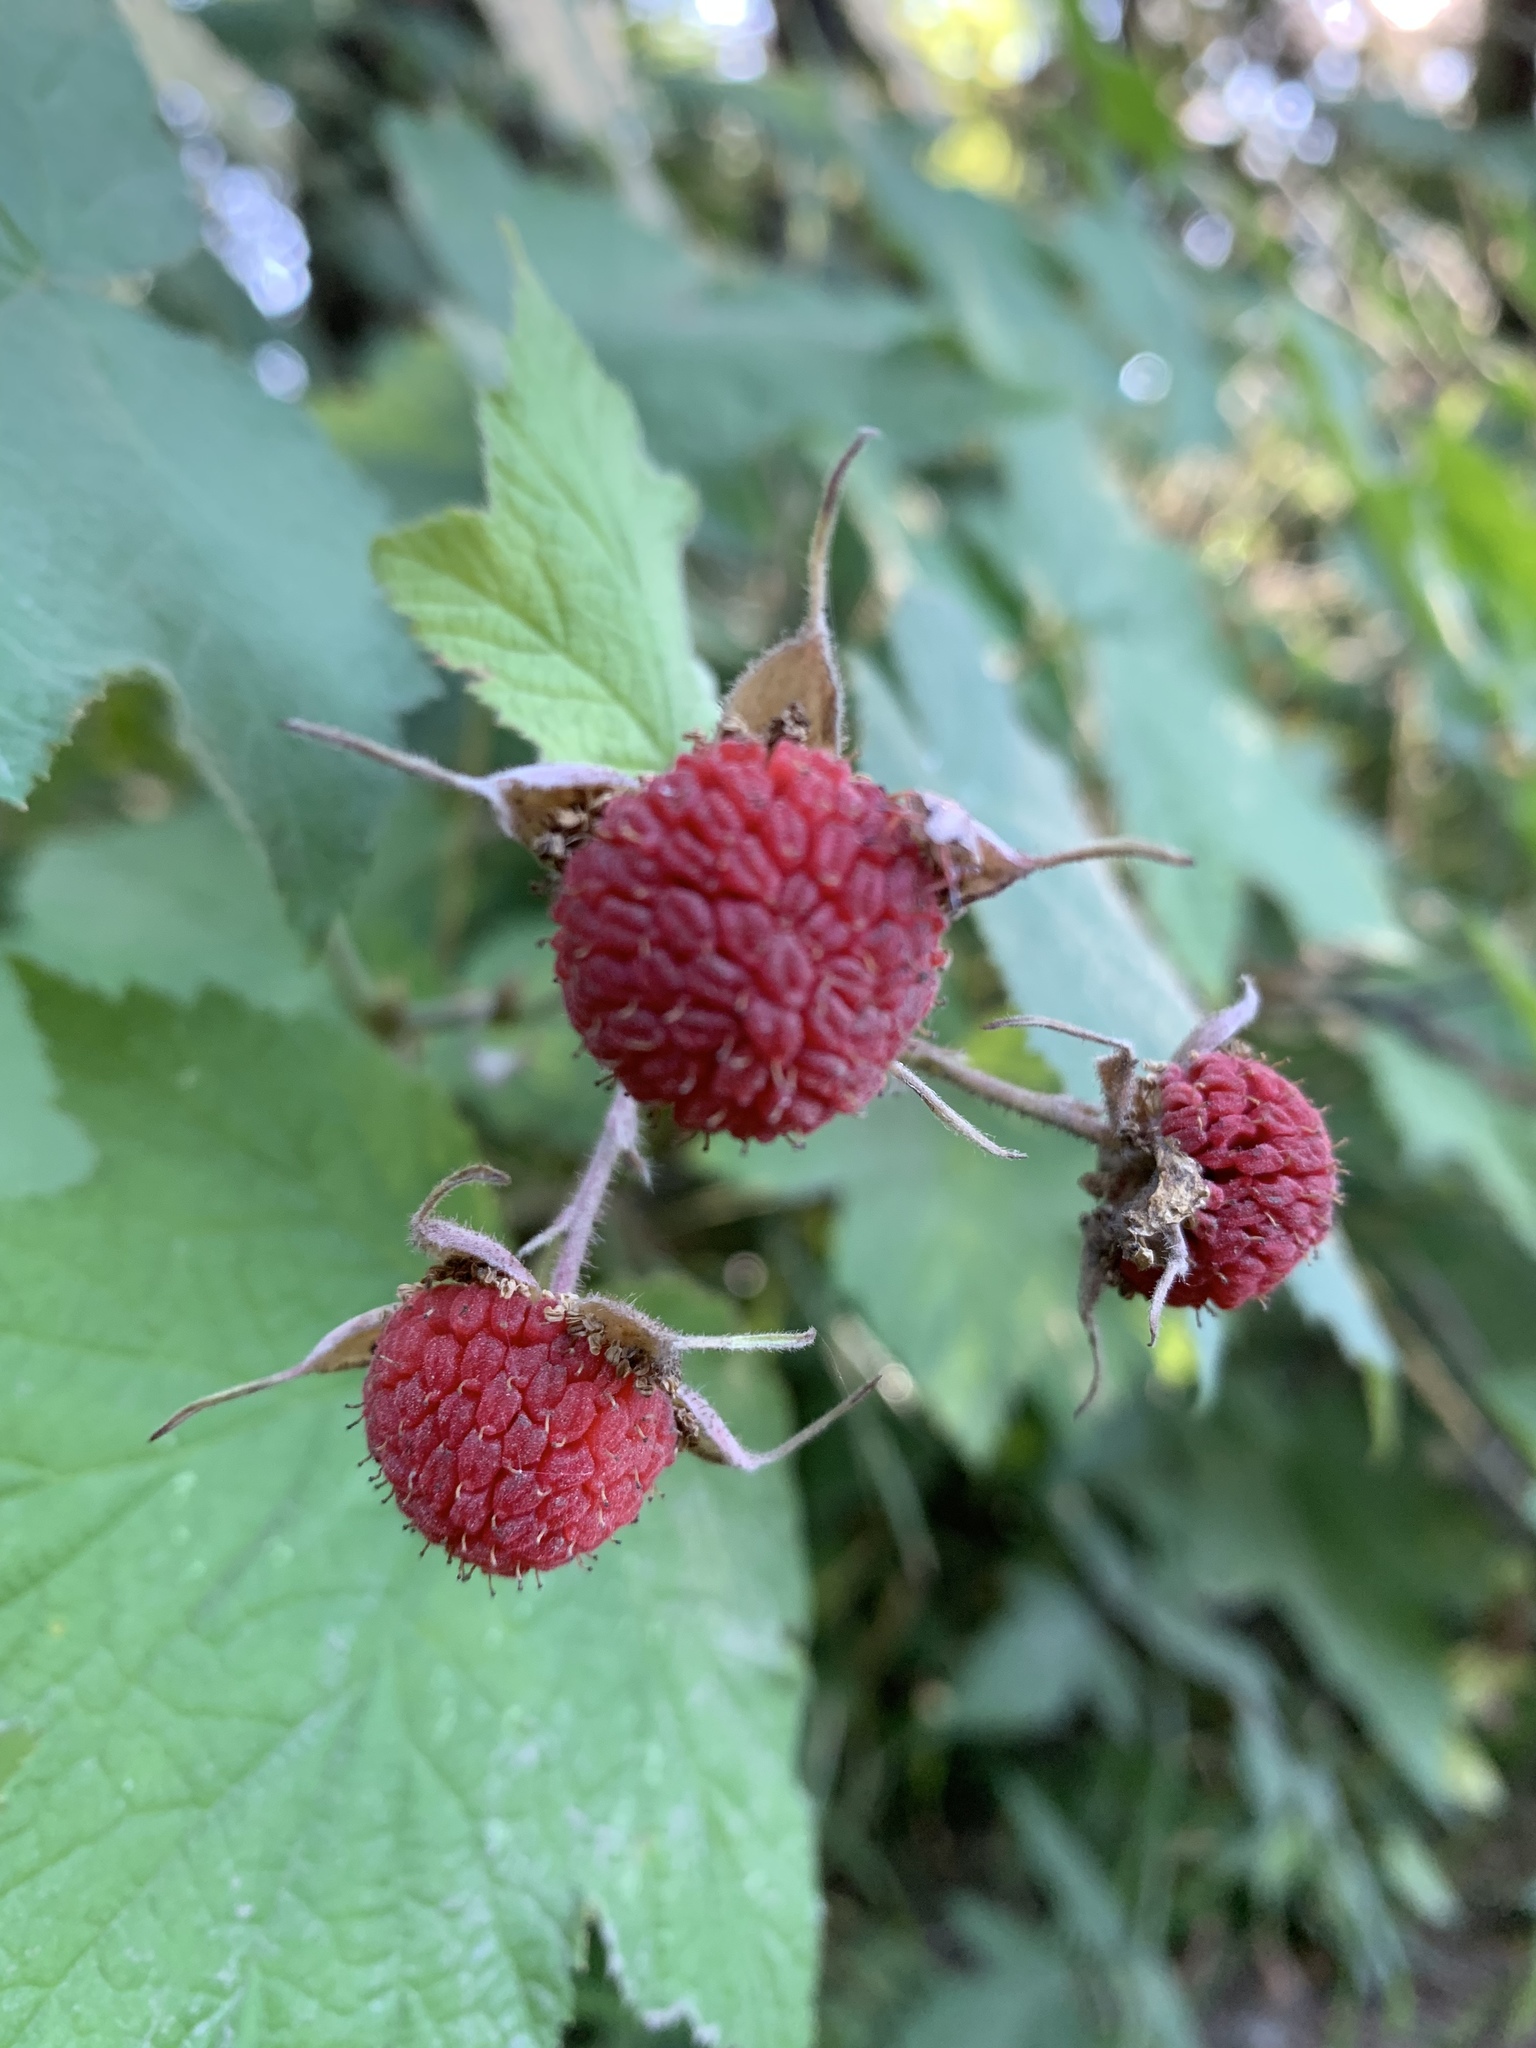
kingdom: Plantae
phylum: Tracheophyta
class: Magnoliopsida
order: Rosales
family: Rosaceae
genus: Rubus
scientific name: Rubus parviflorus
